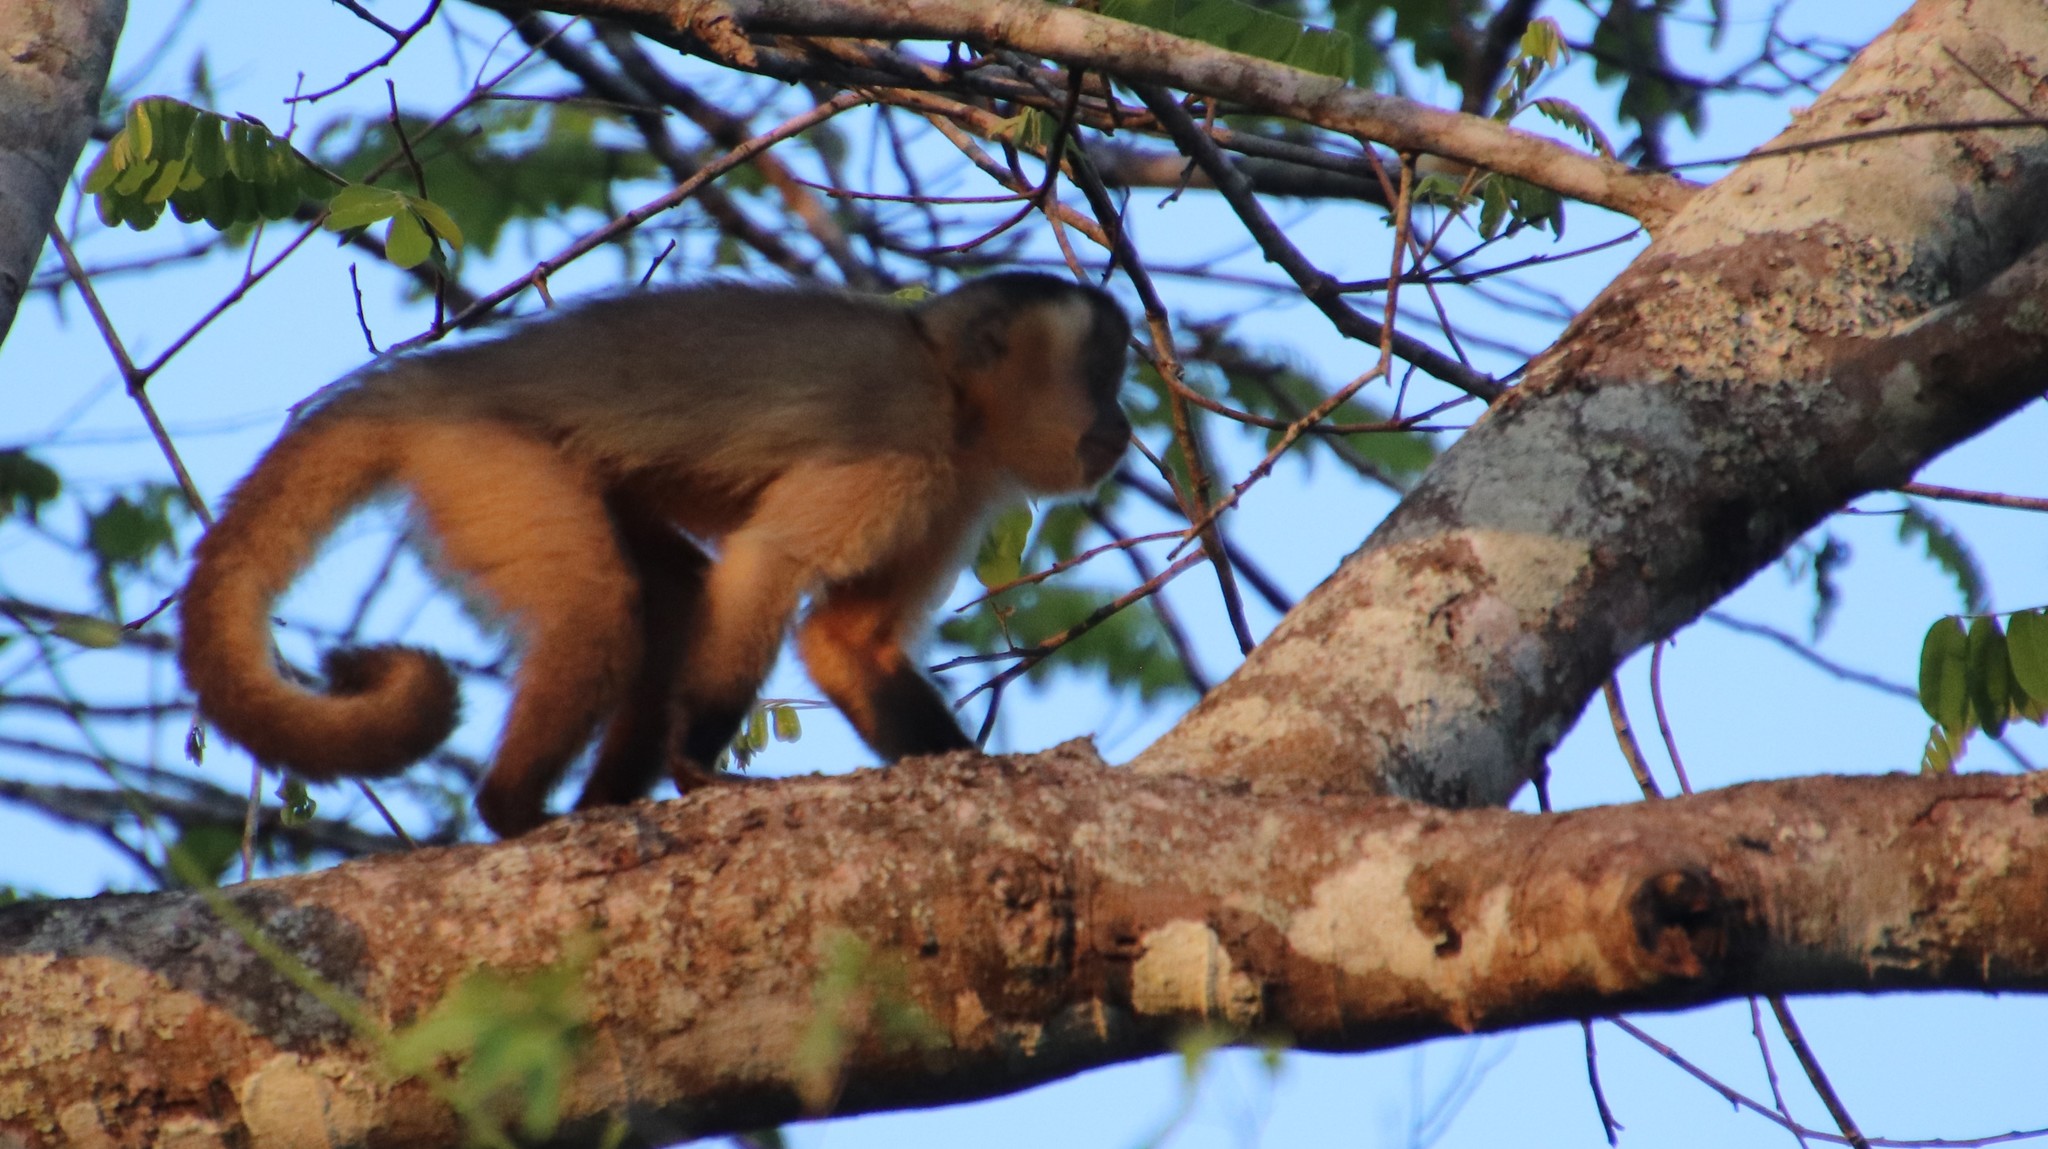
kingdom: Animalia
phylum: Chordata
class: Mammalia
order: Primates
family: Cebidae
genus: Sapajus
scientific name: Sapajus libidinosus
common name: Bearded capuchin
